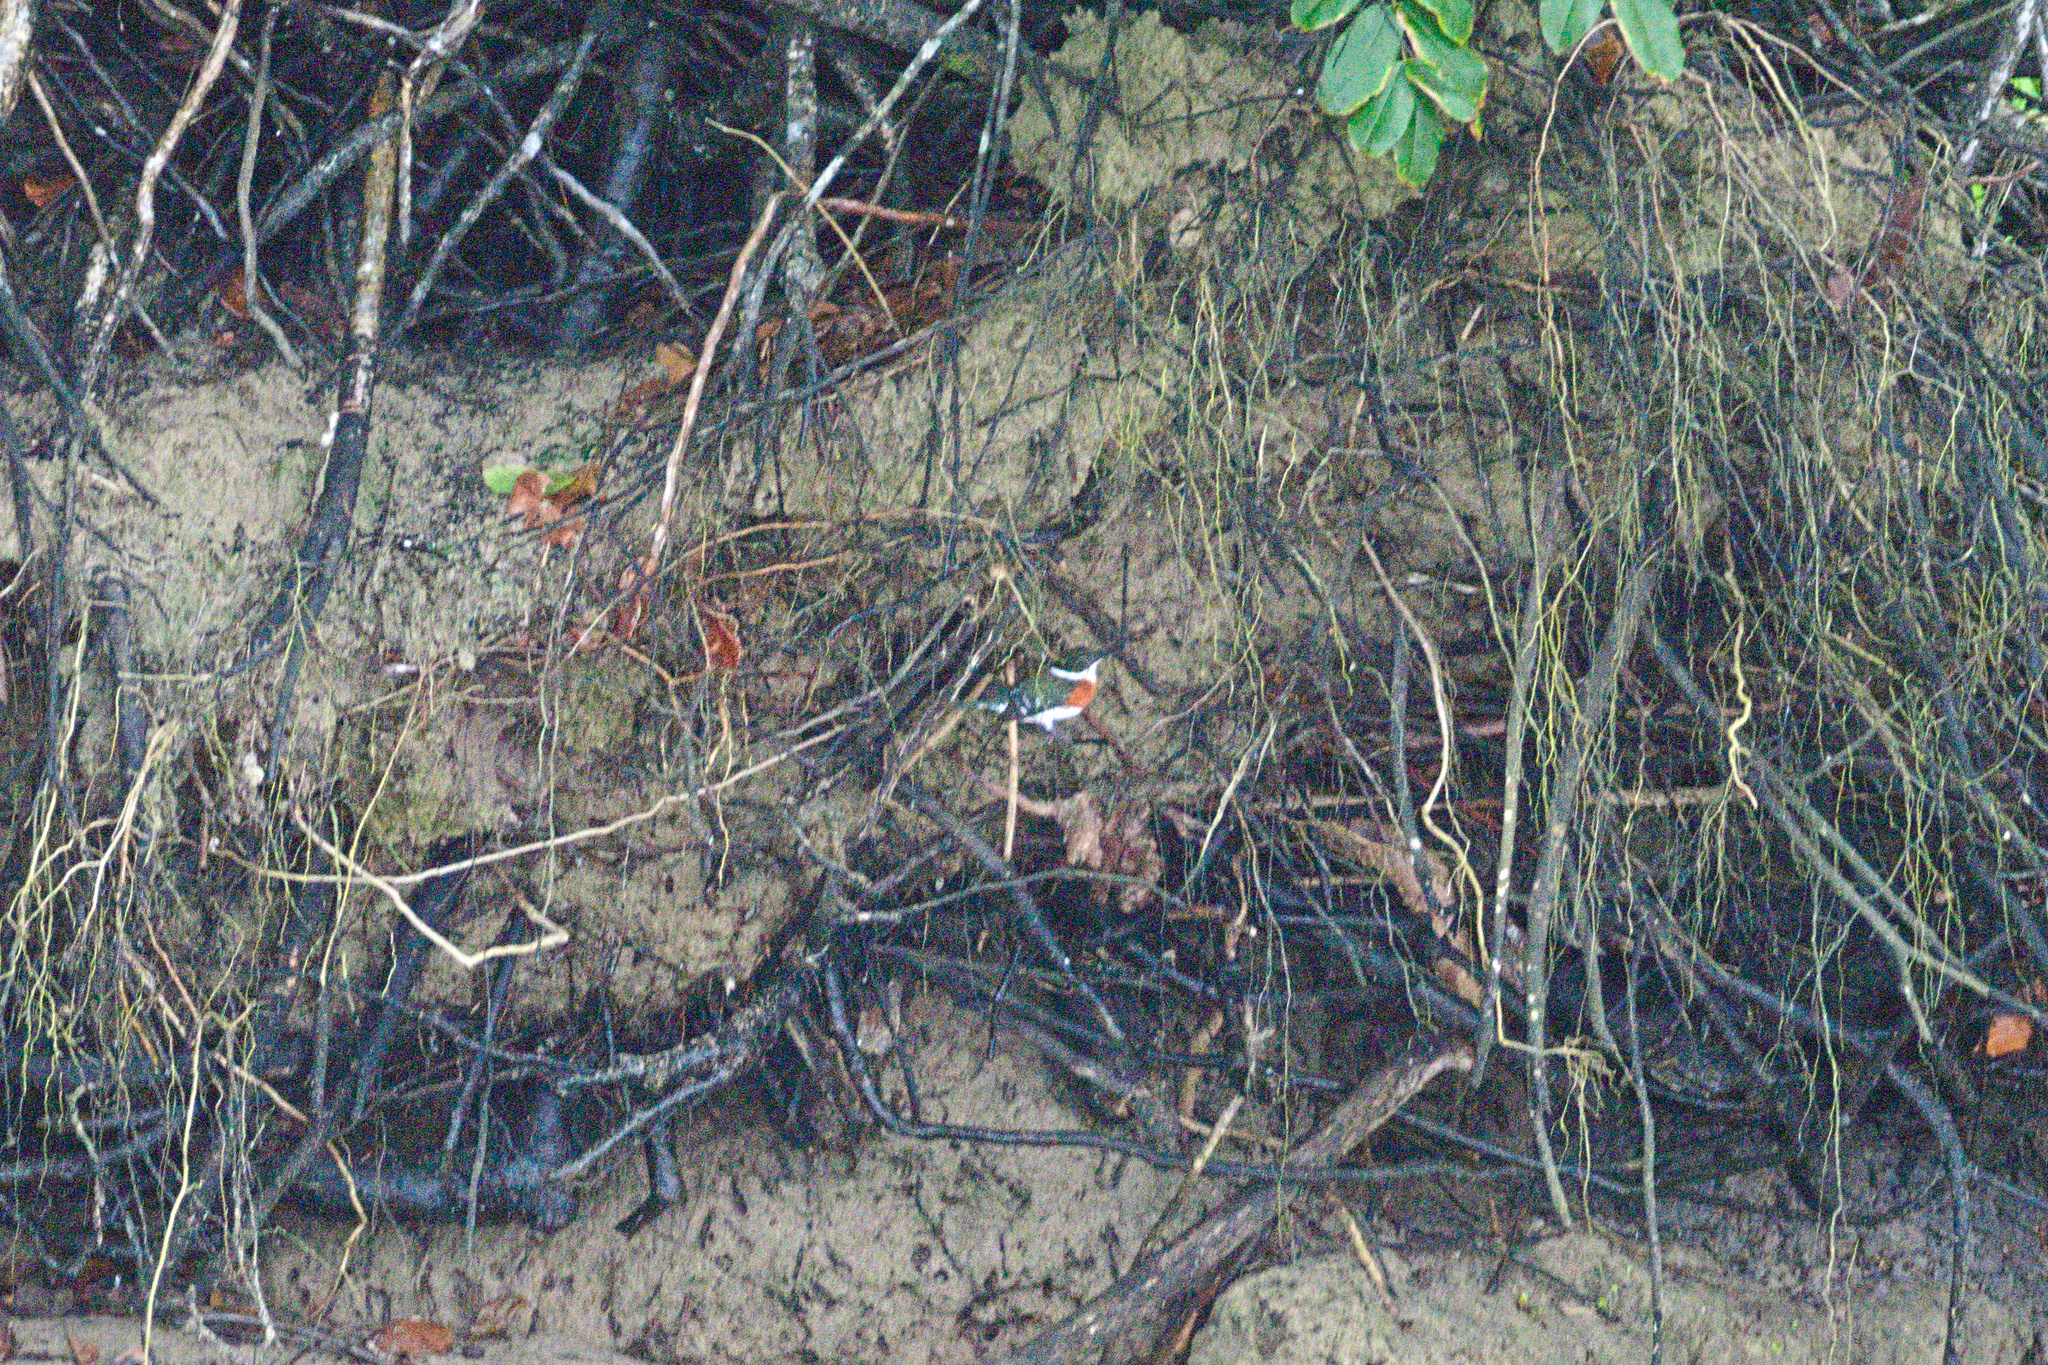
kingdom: Animalia
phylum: Chordata
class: Aves
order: Coraciiformes
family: Alcedinidae
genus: Chloroceryle
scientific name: Chloroceryle americana
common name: Green kingfisher
